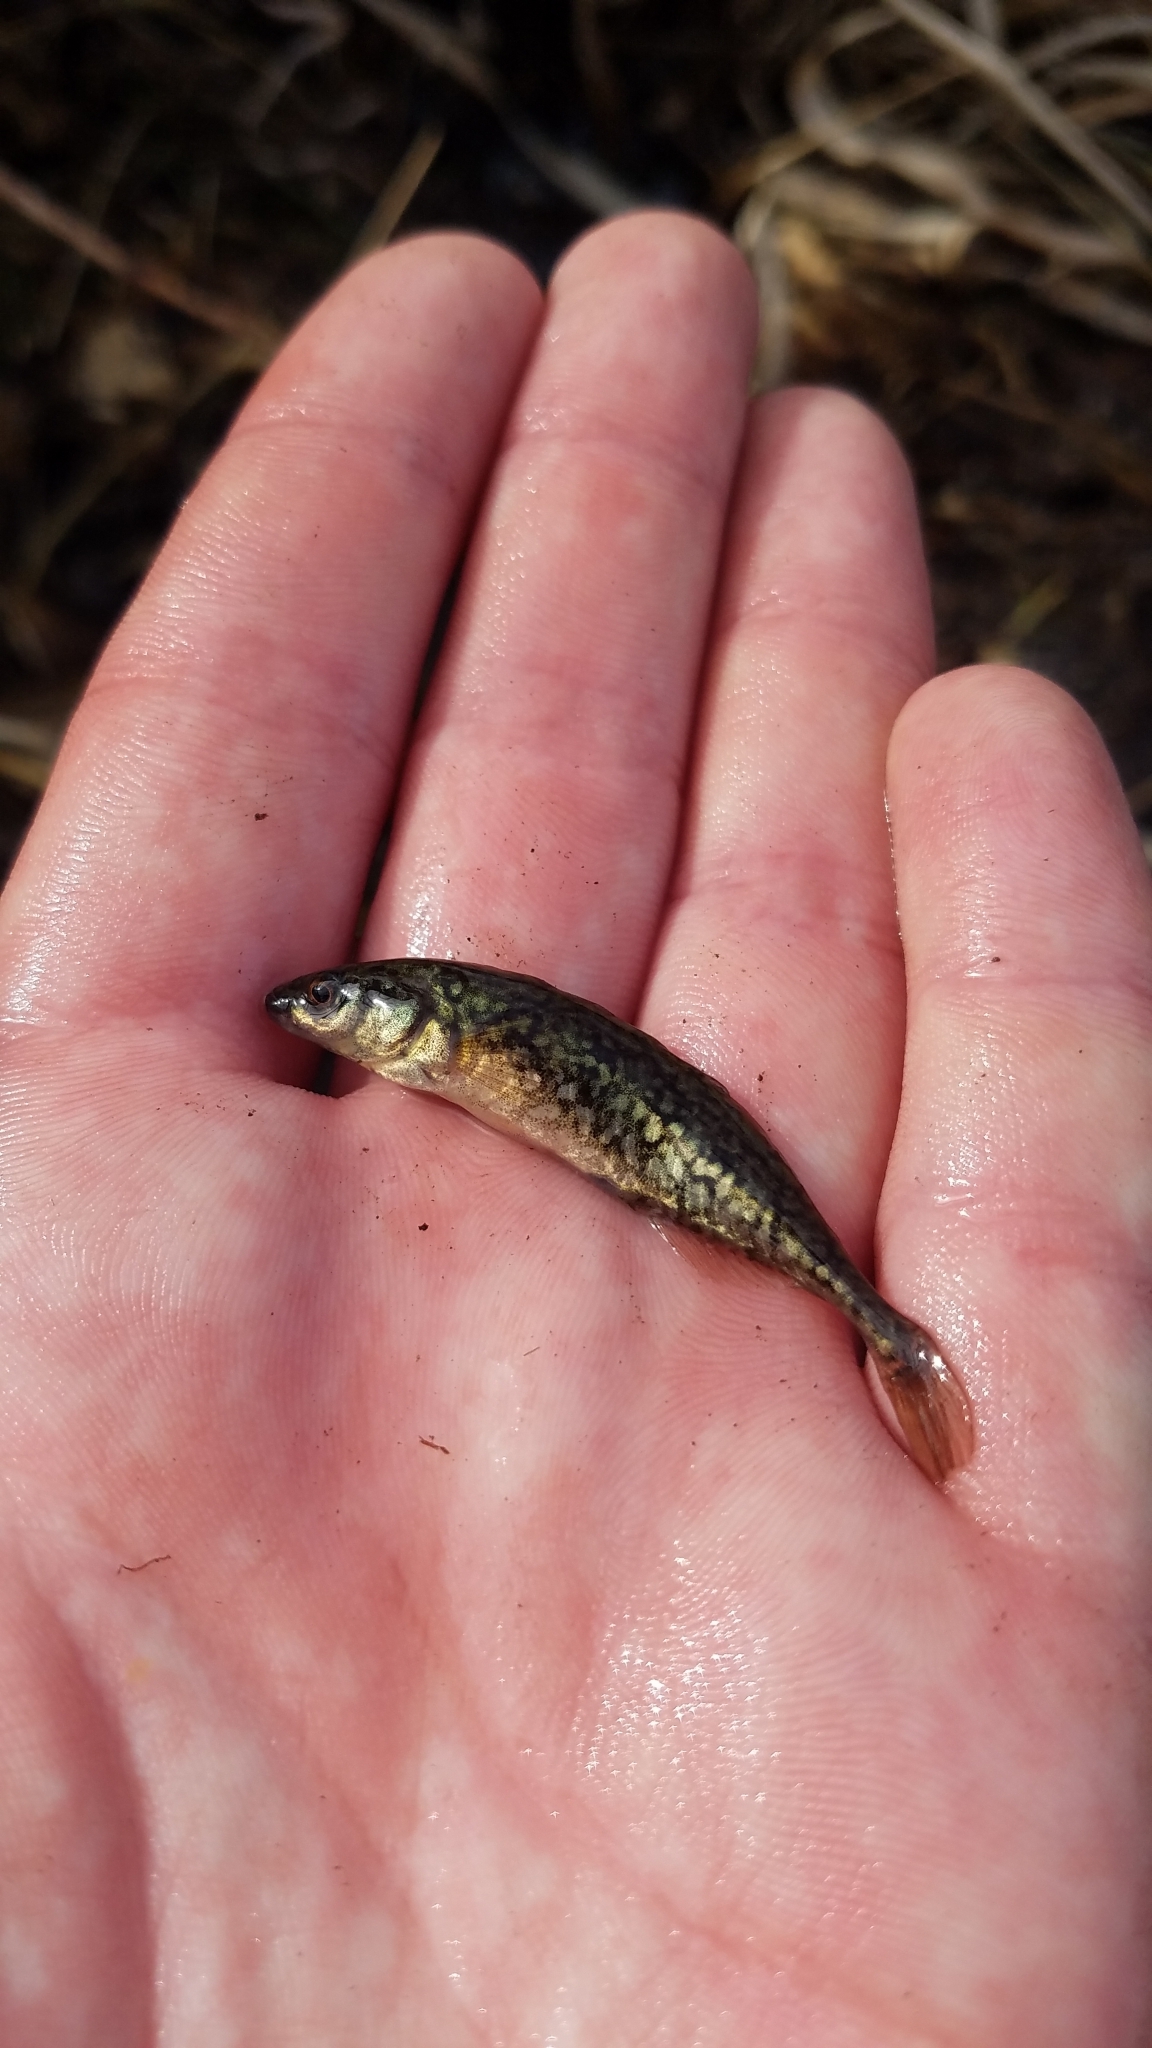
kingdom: Animalia
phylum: Chordata
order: Gasterosteiformes
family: Gasterosteidae
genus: Culaea
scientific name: Culaea inconstans
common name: Brook stickleback
